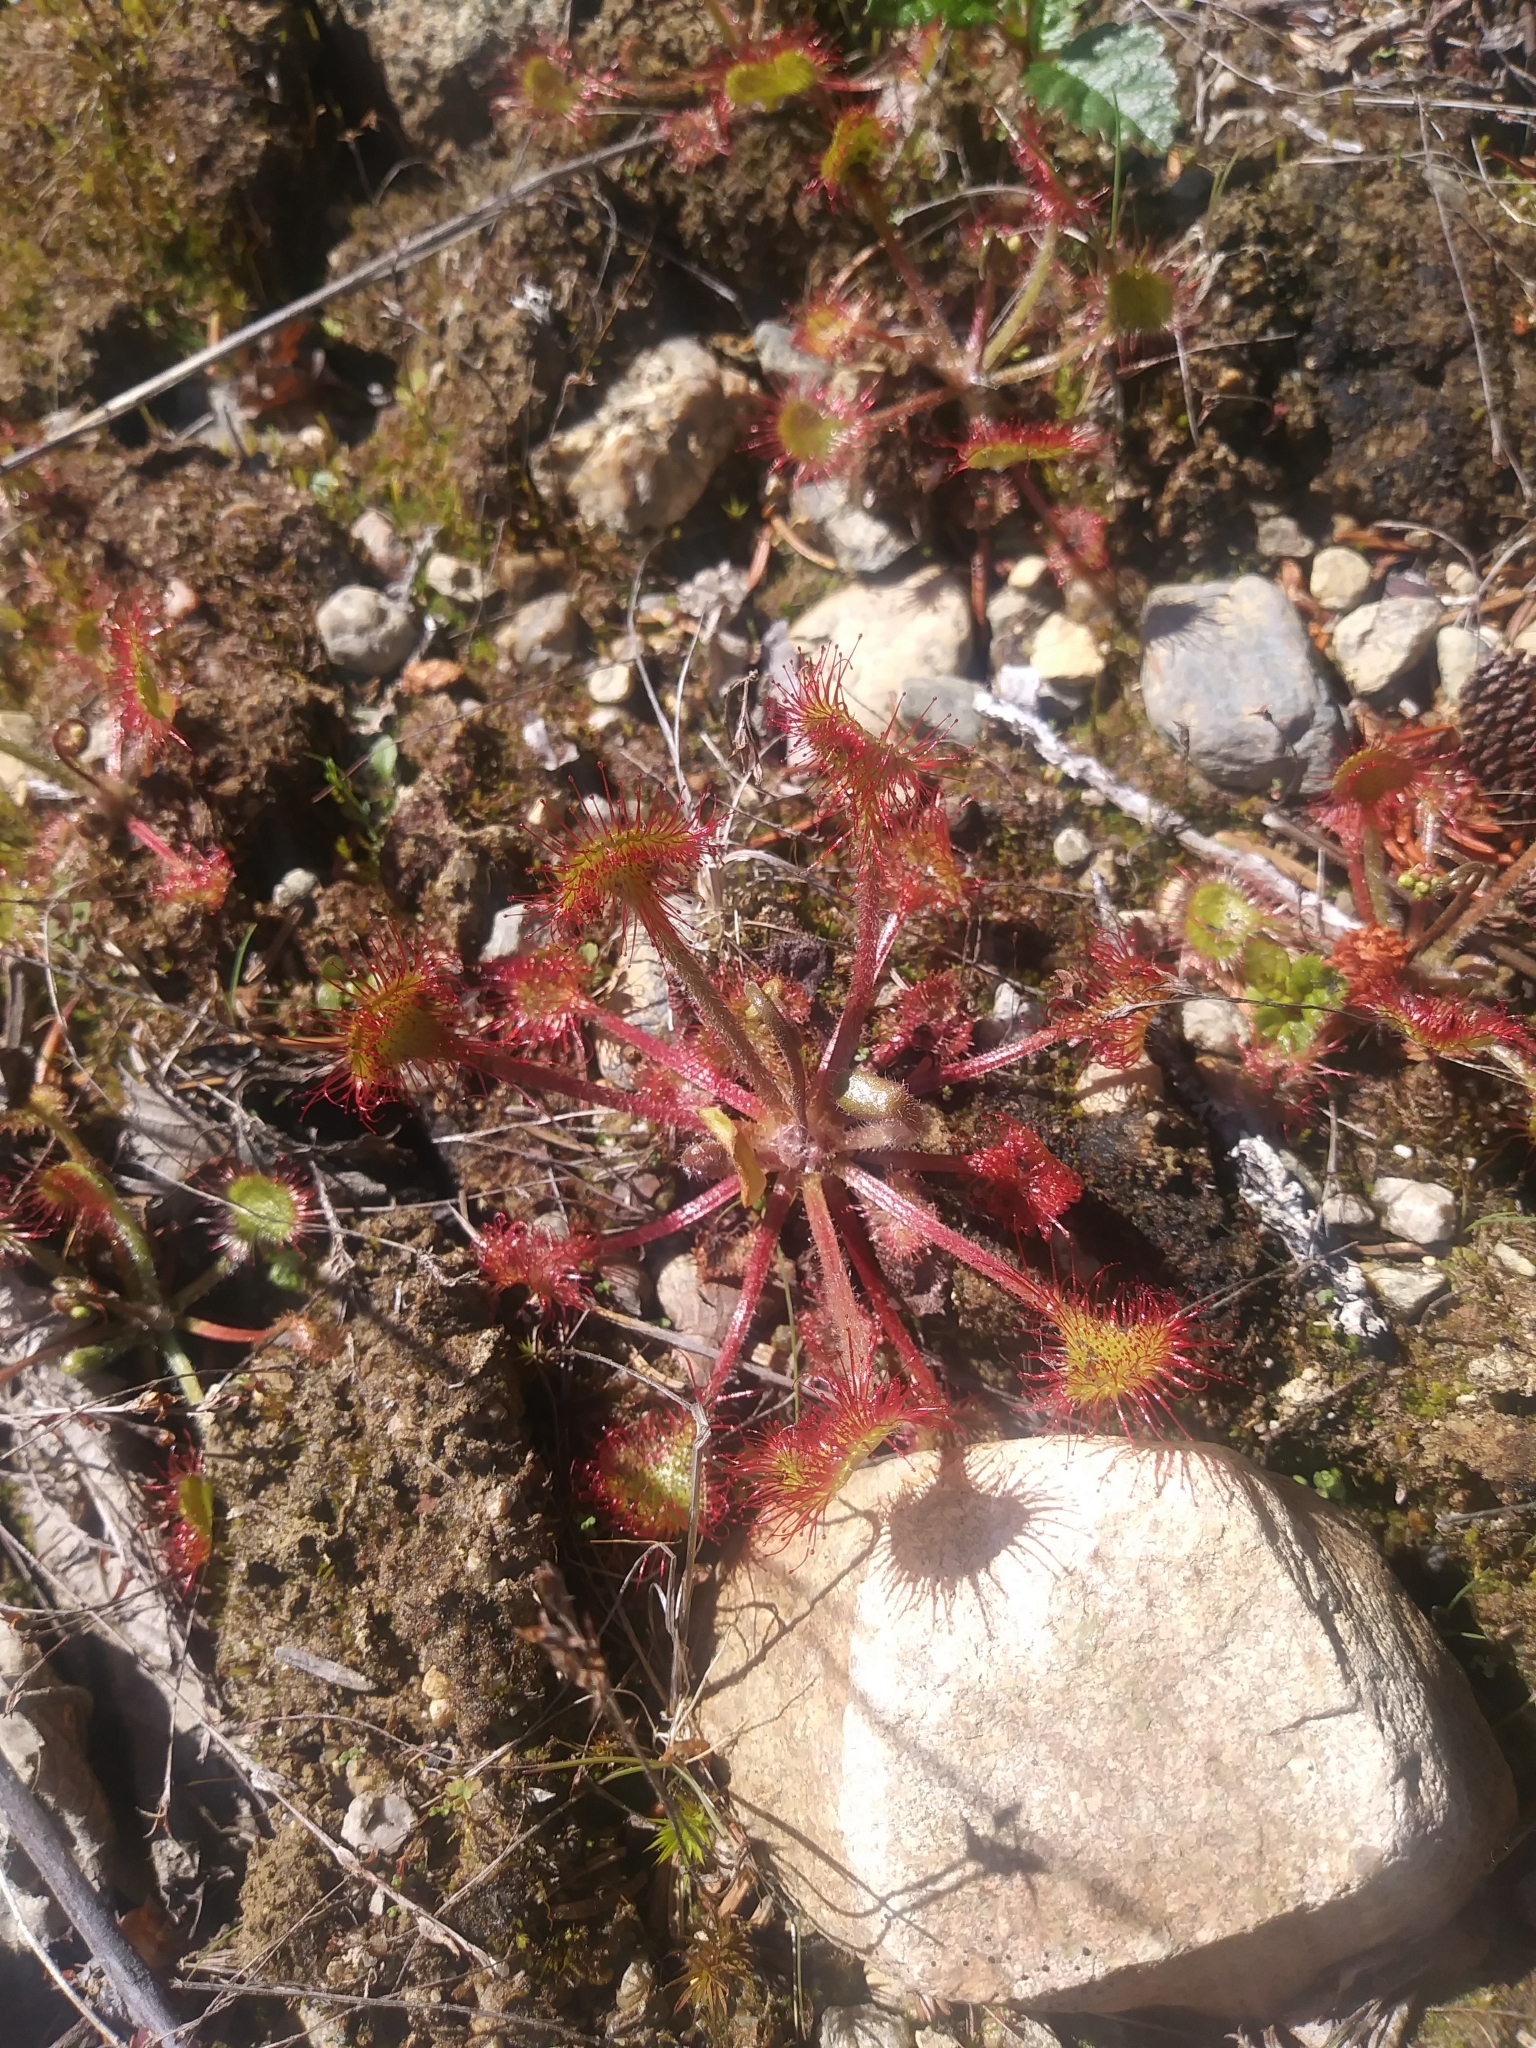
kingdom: Plantae
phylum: Tracheophyta
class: Magnoliopsida
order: Caryophyllales
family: Droseraceae
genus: Drosera
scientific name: Drosera rotundifolia
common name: Round-leaved sundew
